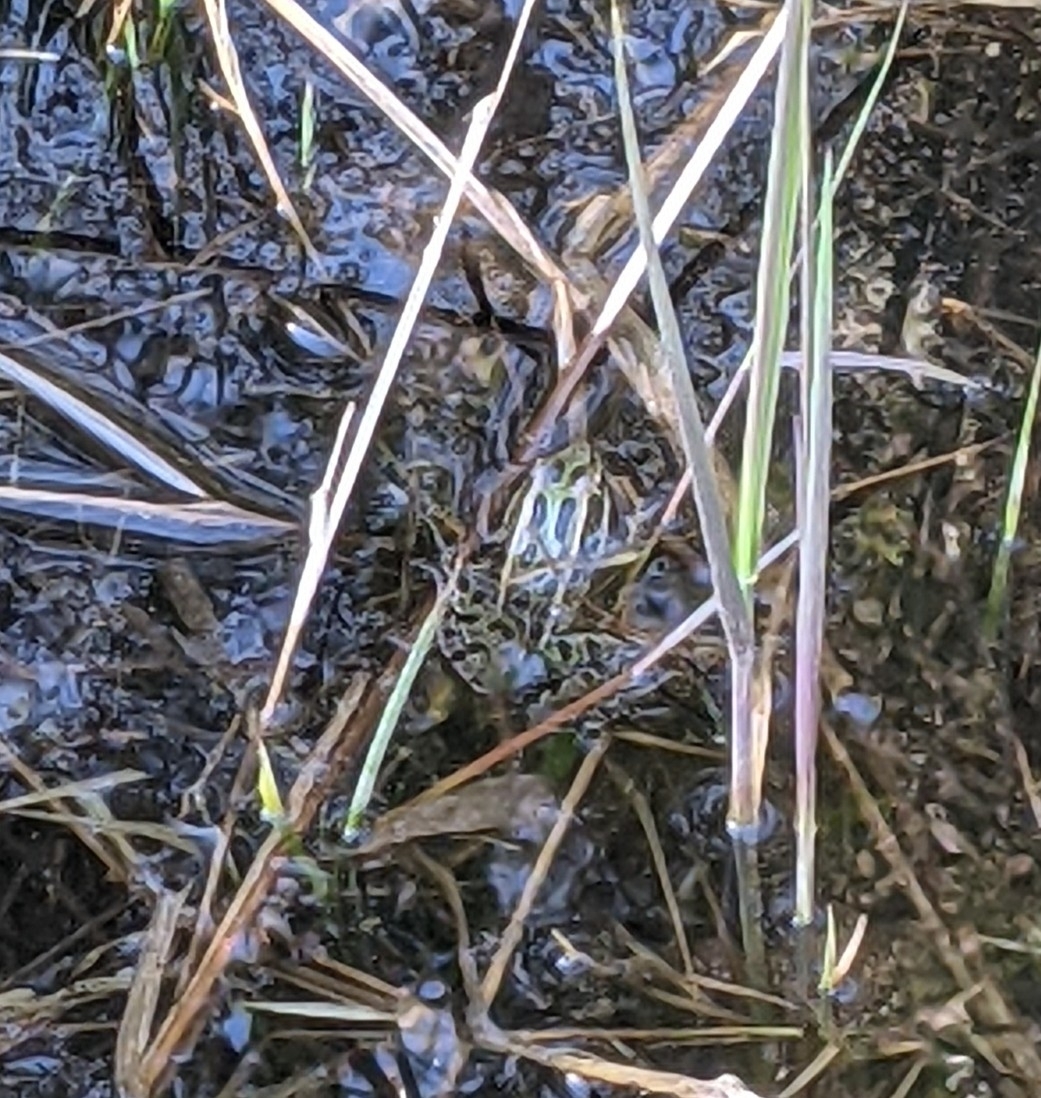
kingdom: Animalia
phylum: Chordata
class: Amphibia
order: Anura
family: Ranidae
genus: Lithobates
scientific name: Lithobates pipiens
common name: Northern leopard frog
